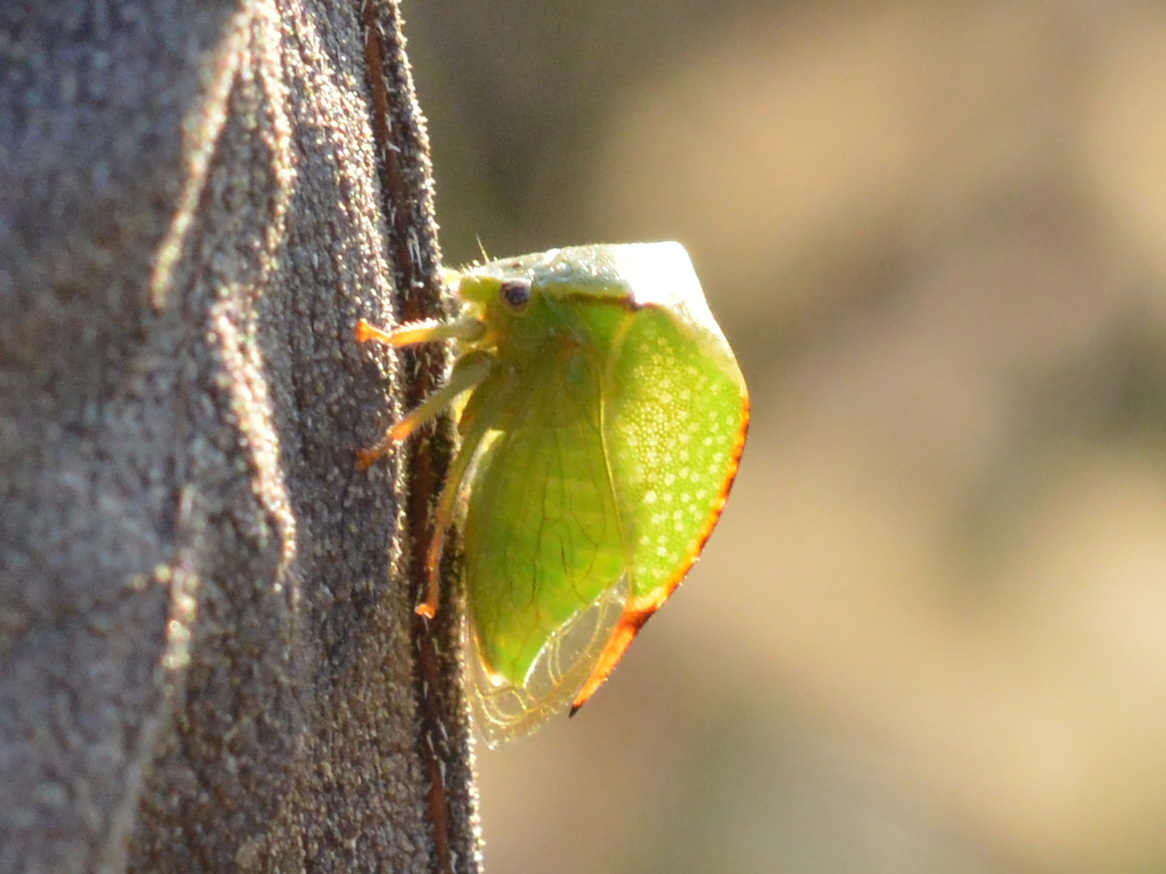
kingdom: Animalia
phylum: Arthropoda
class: Insecta
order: Hemiptera
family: Membracidae
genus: Stictocephala
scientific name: Stictocephala bisonia
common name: American buffalo treehopper
